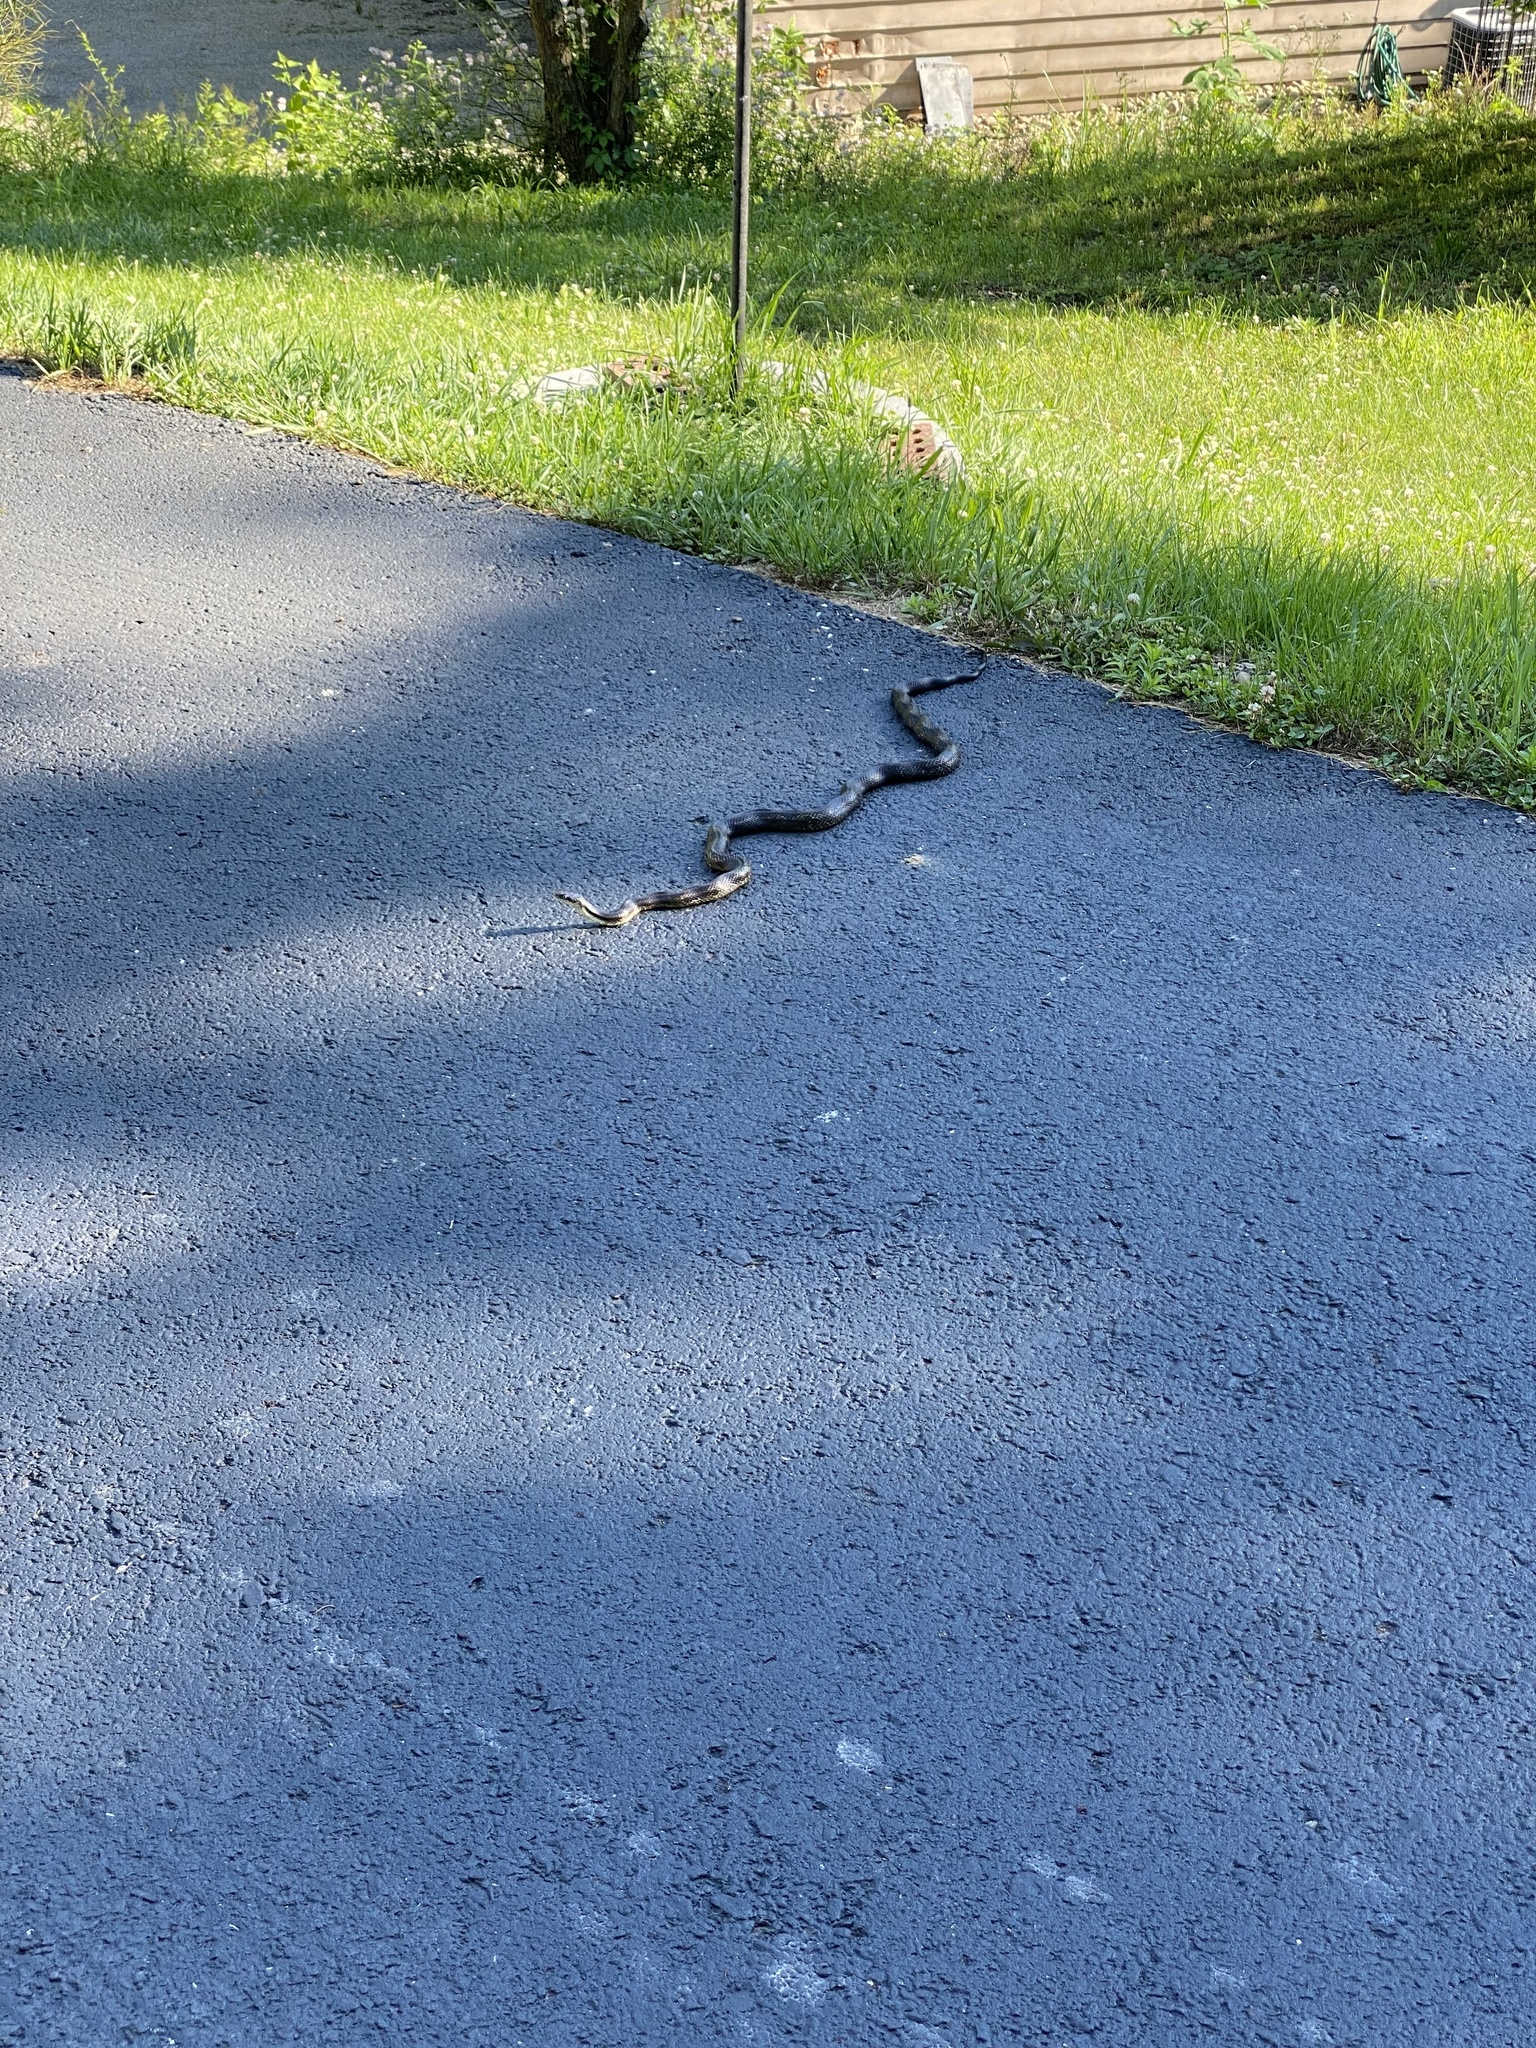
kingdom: Animalia
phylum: Chordata
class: Squamata
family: Colubridae
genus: Pantherophis
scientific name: Pantherophis spiloides
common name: Gray rat snake
